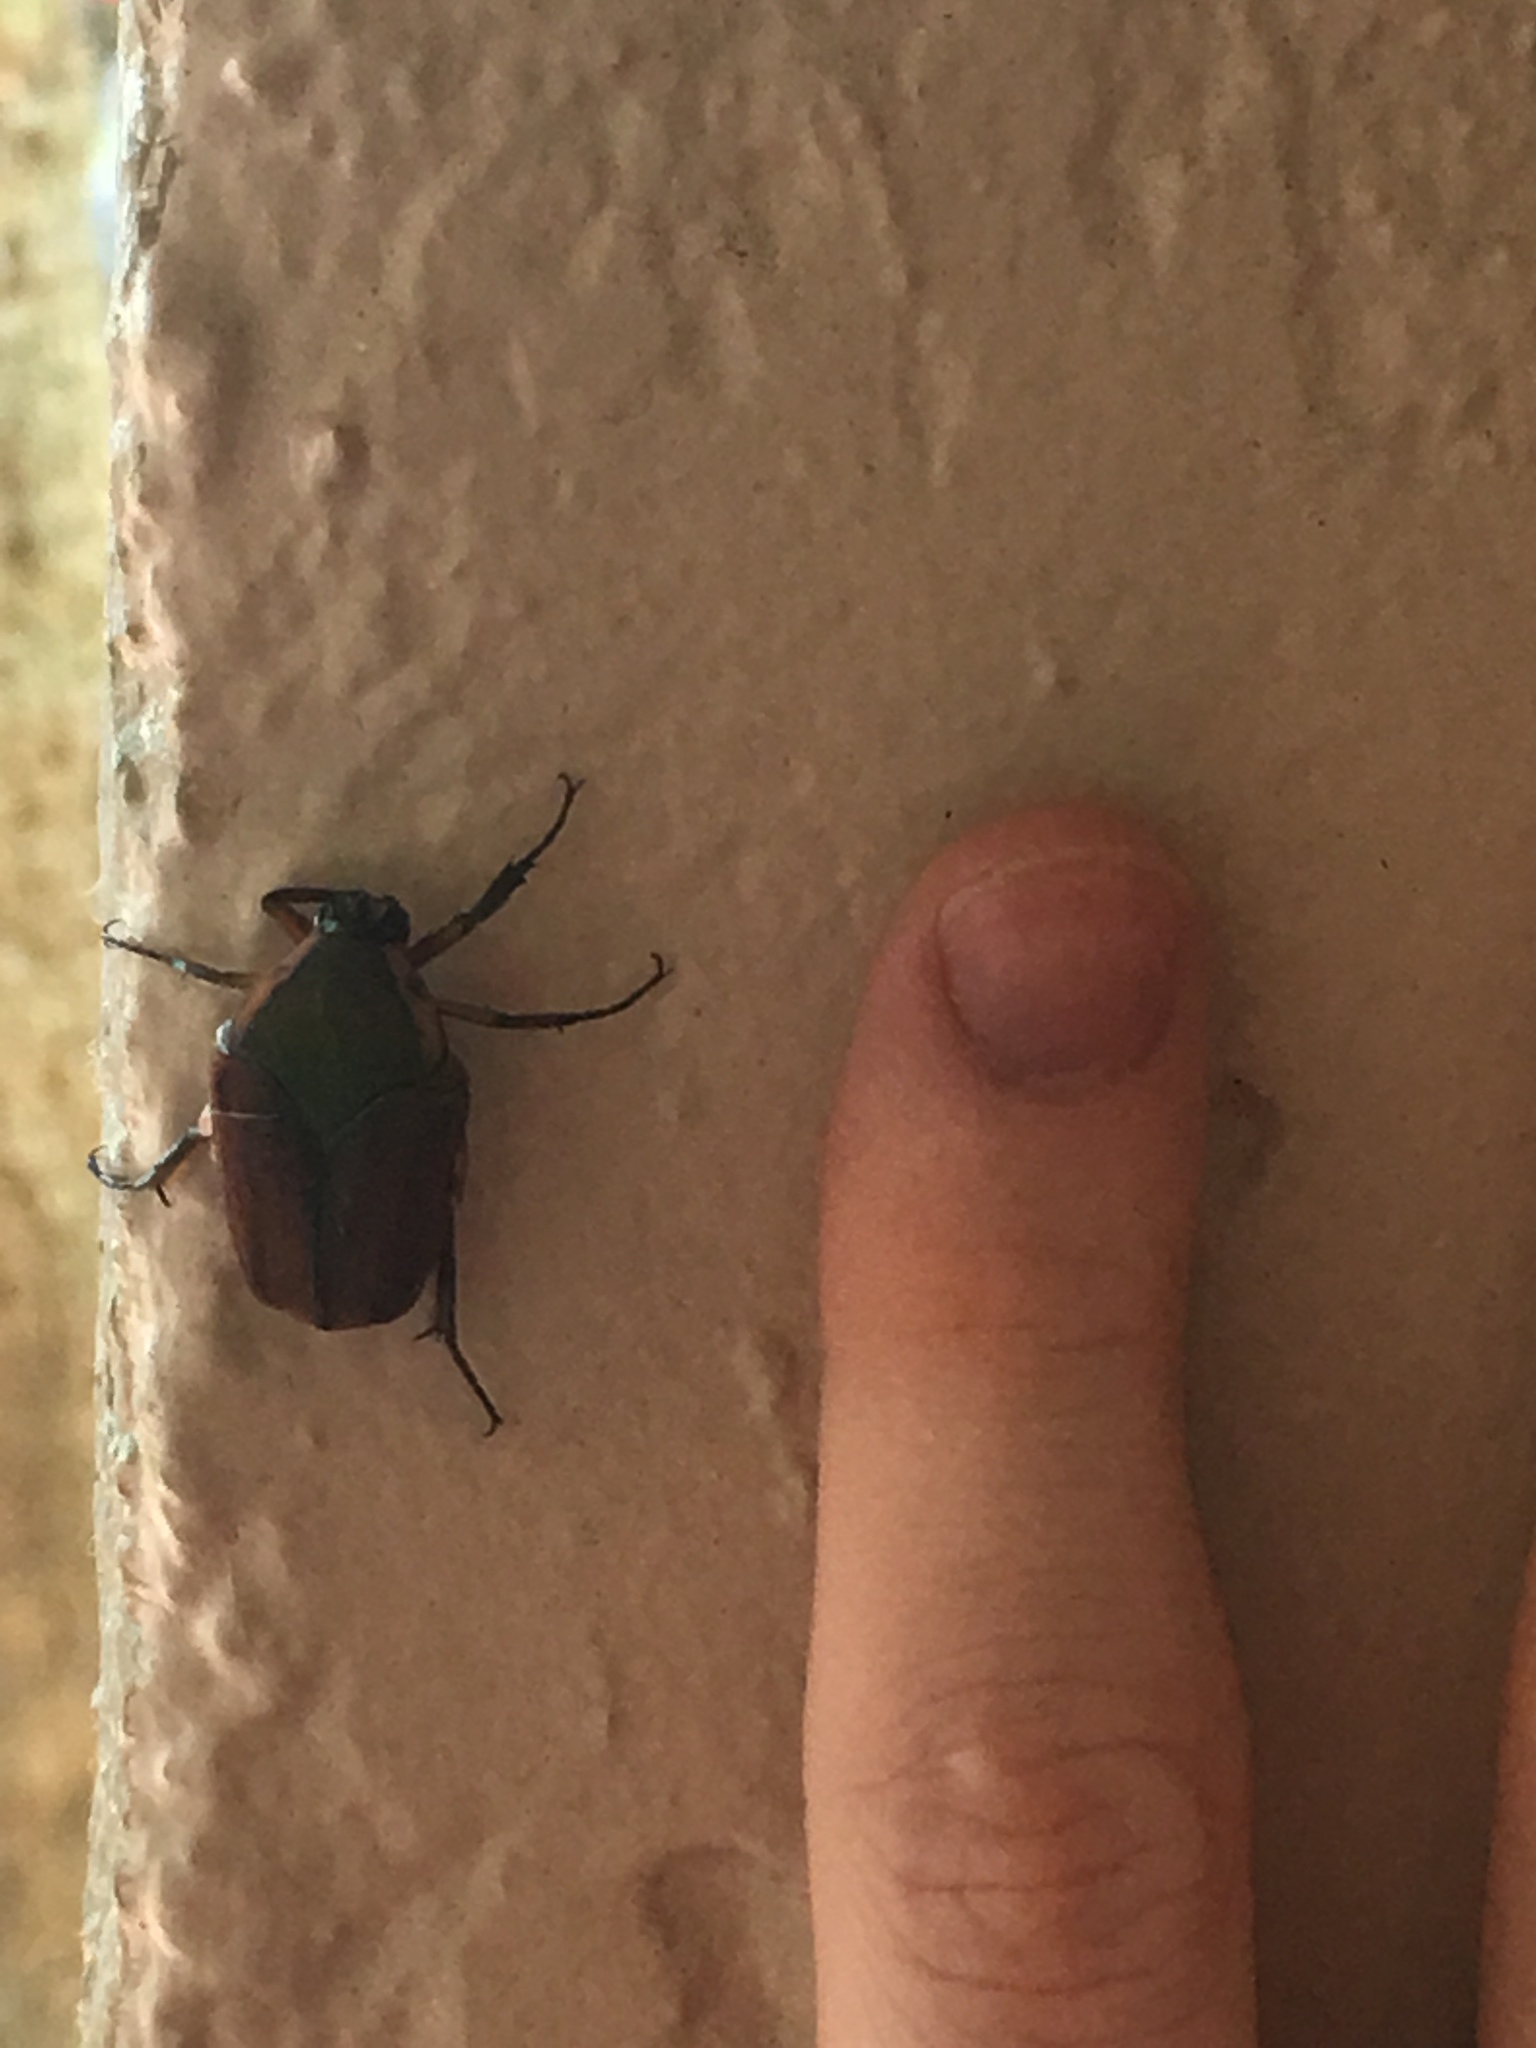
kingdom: Animalia
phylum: Arthropoda
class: Insecta
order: Coleoptera
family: Scarabaeidae
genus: Cotinis
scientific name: Cotinis nitida
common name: Common green june beetle
